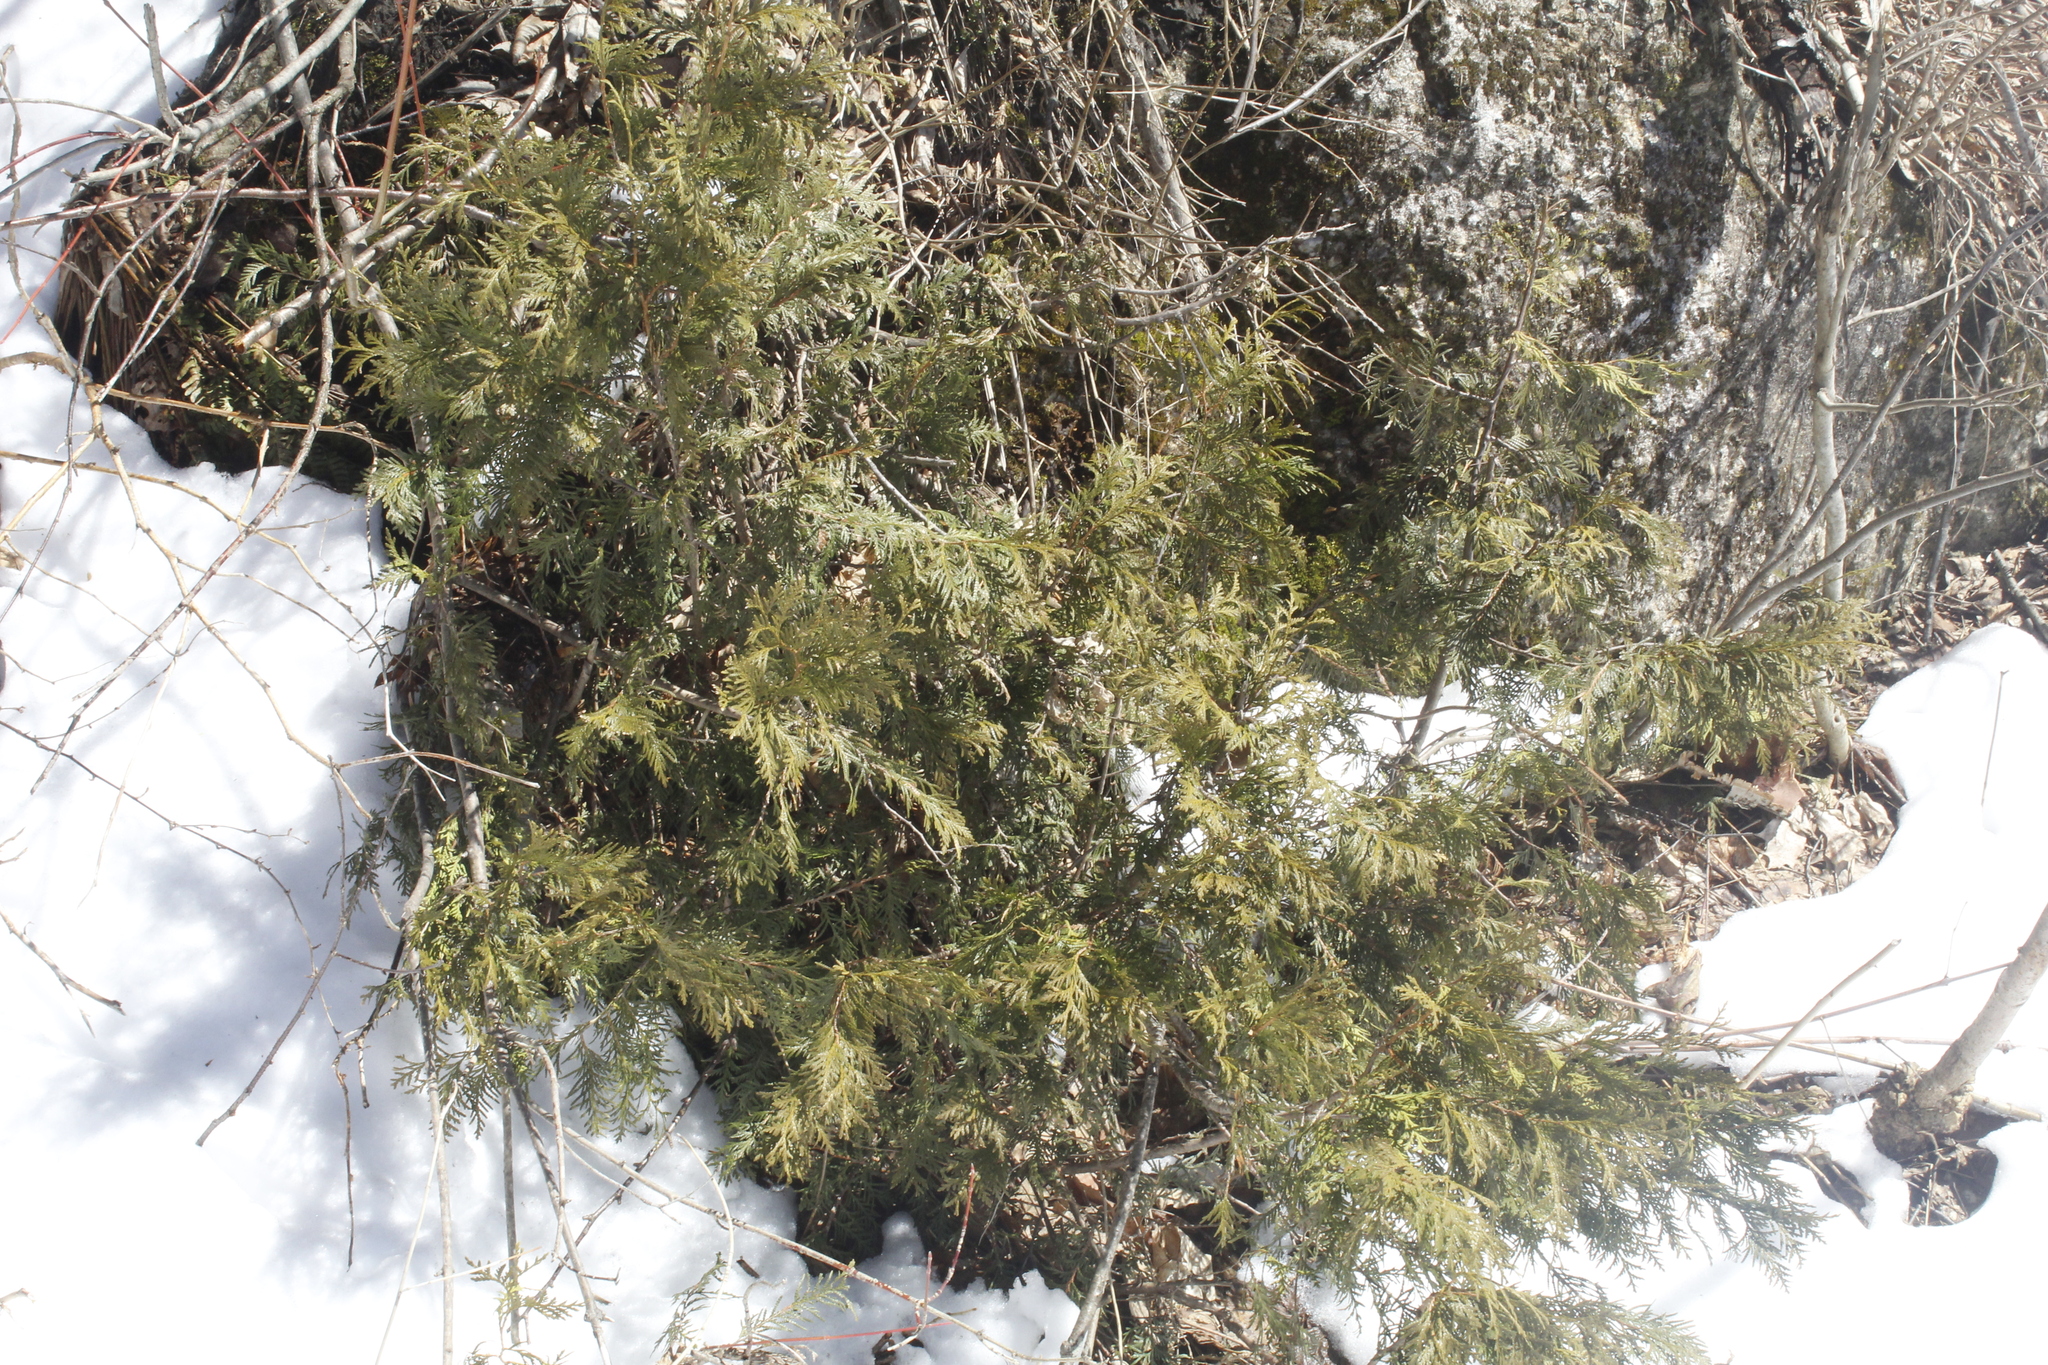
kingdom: Plantae
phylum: Tracheophyta
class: Pinopsida
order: Pinales
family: Cupressaceae
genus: Thuja
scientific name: Thuja occidentalis
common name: Northern white-cedar
